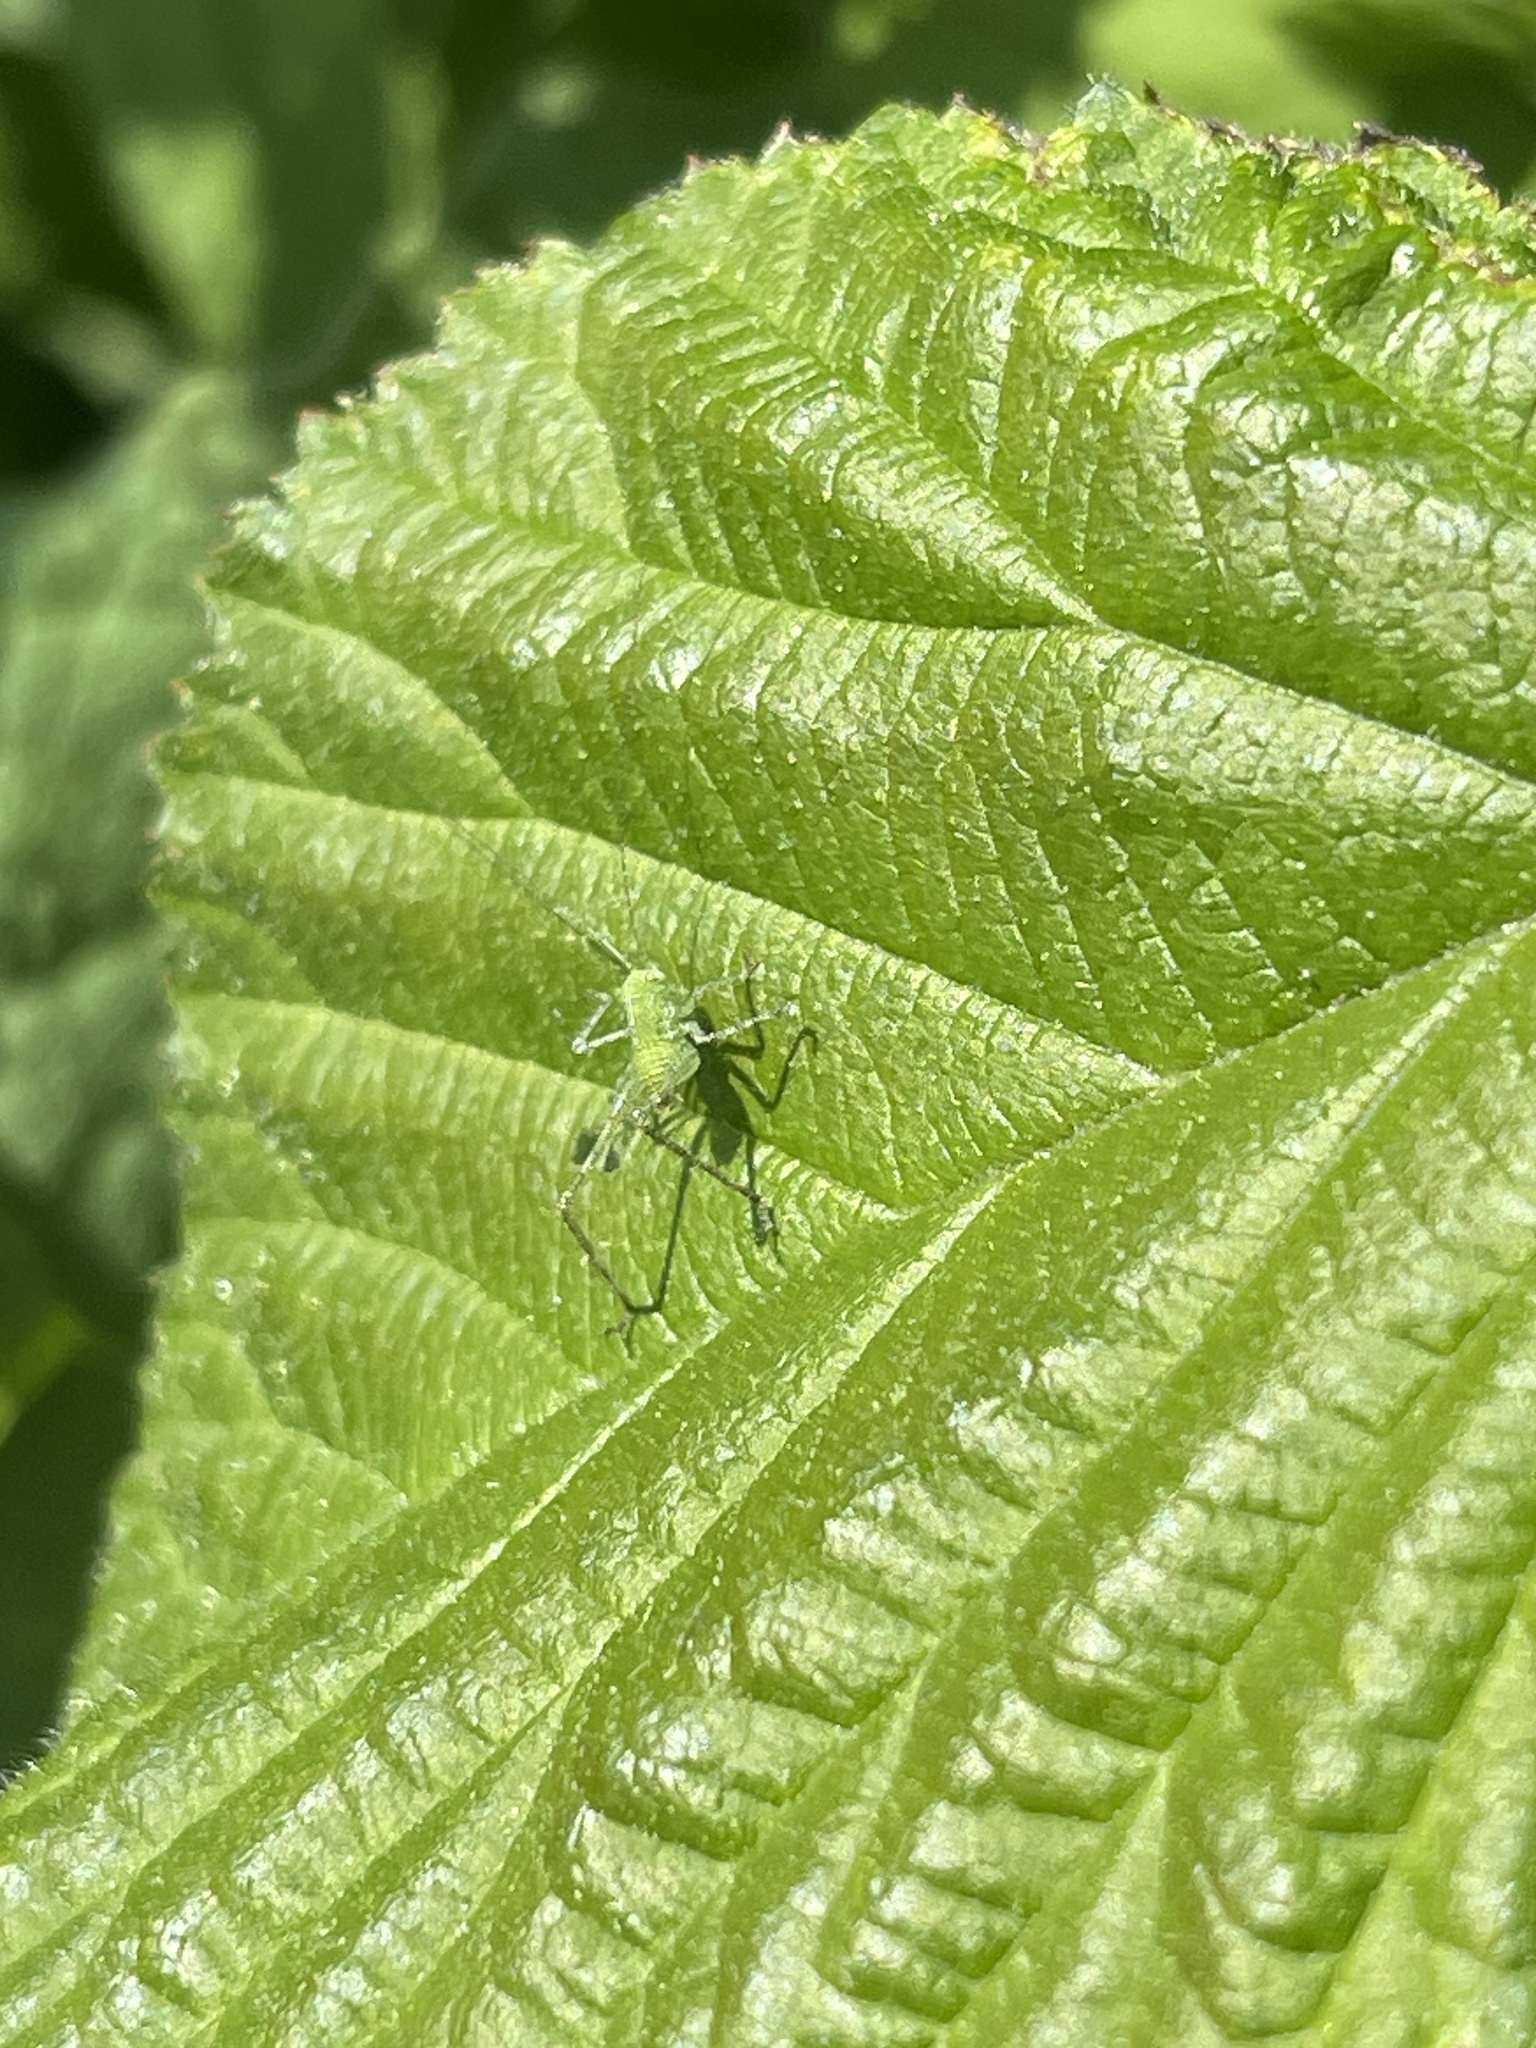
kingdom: Animalia
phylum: Arthropoda
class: Insecta
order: Orthoptera
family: Tettigoniidae
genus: Microcentrum
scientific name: Microcentrum rhombifolium
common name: Broad-winged katydid
